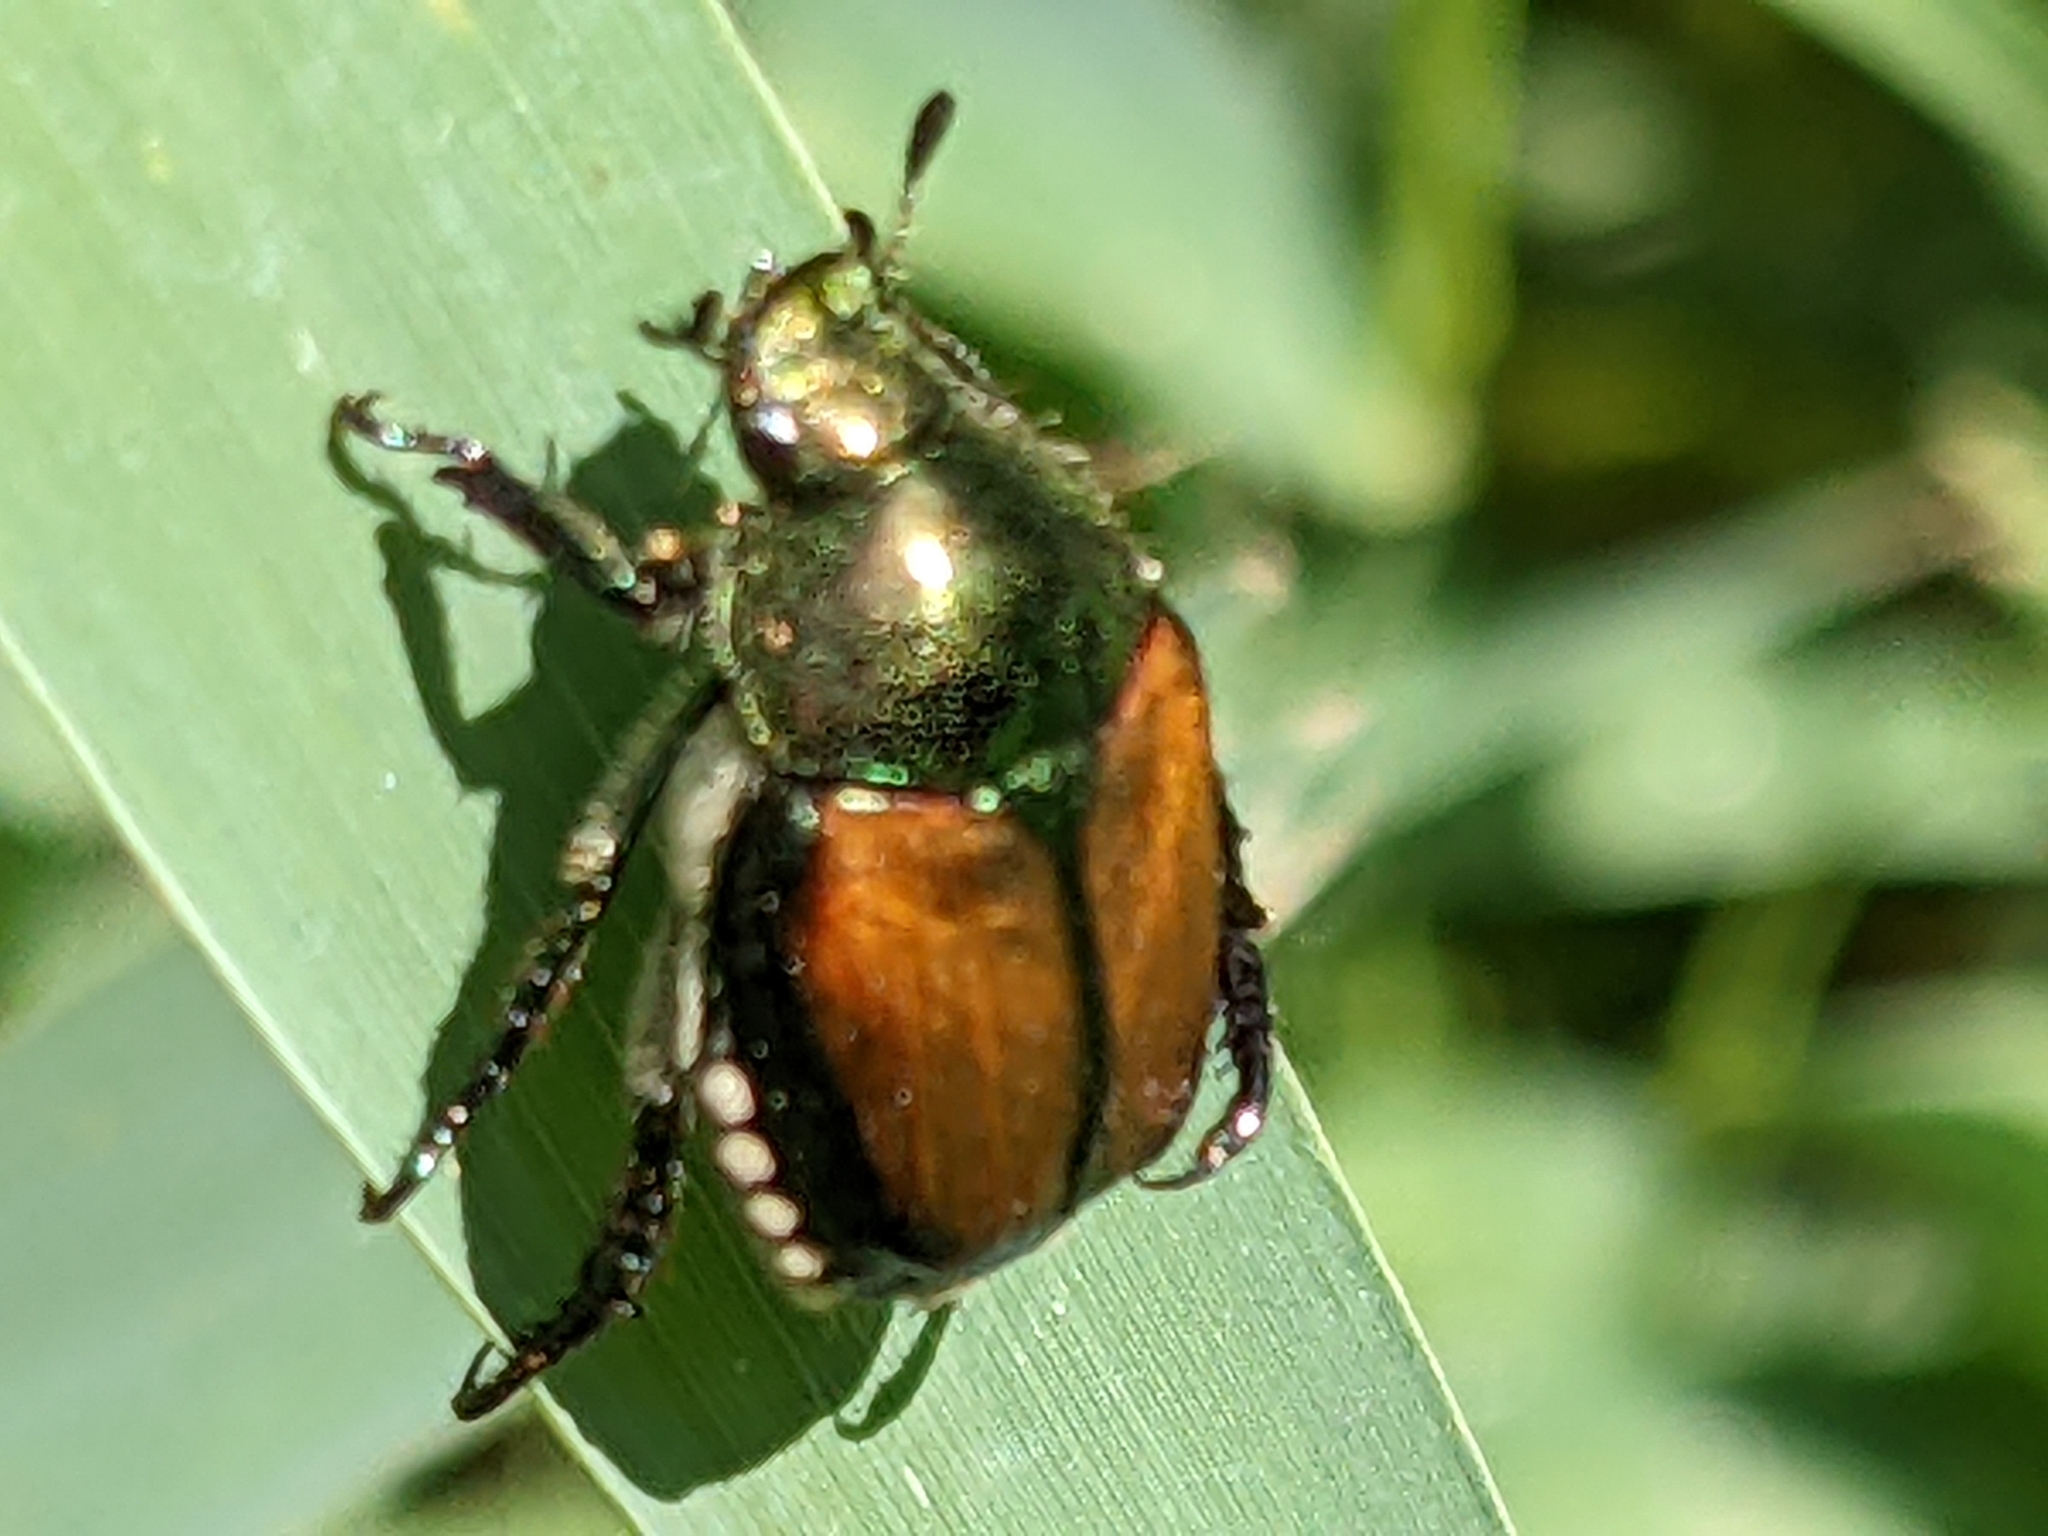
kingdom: Animalia
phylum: Arthropoda
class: Insecta
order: Coleoptera
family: Scarabaeidae
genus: Popillia
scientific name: Popillia japonica
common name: Japanese beetle
